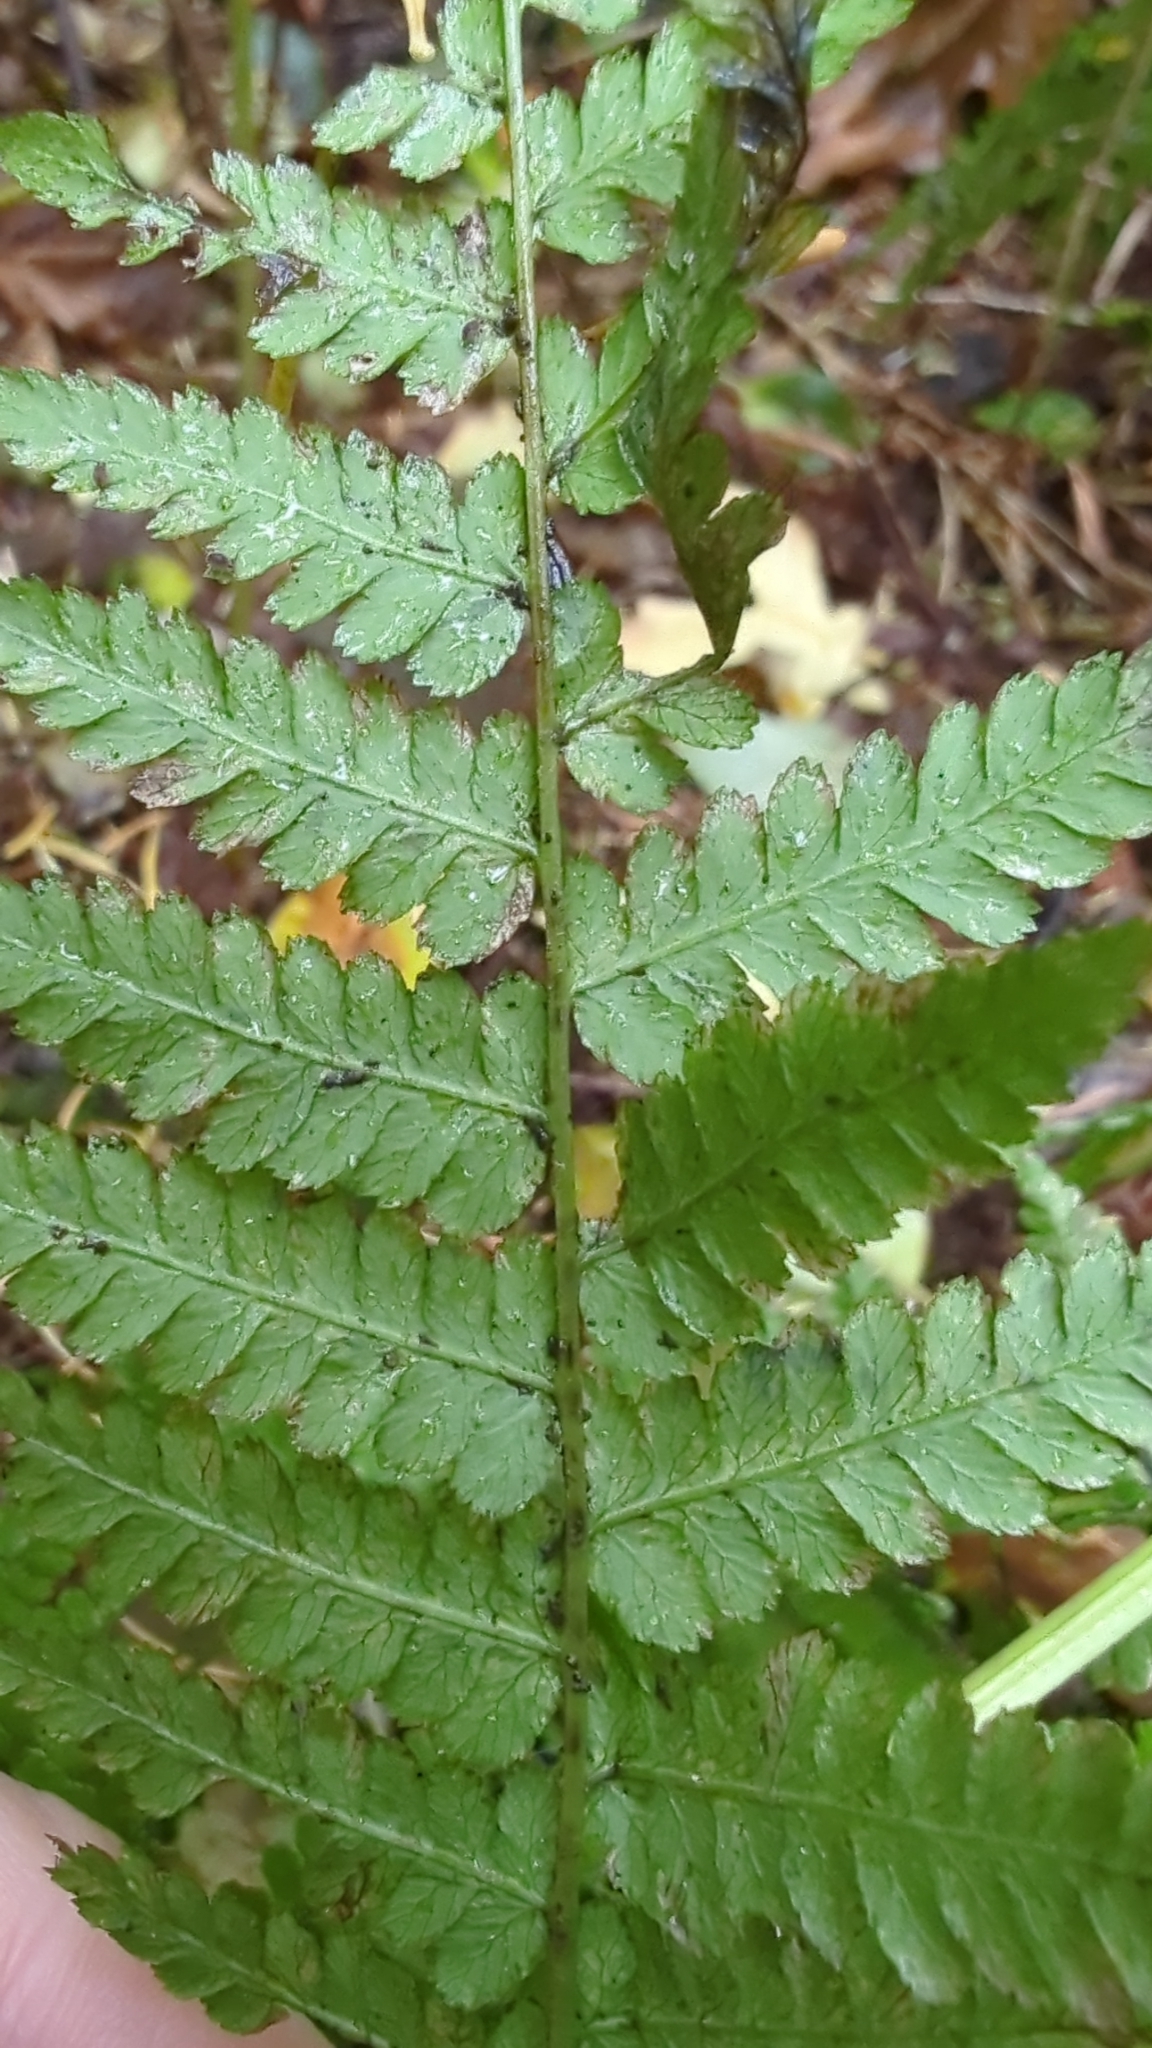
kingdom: Plantae
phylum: Tracheophyta
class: Polypodiopsida
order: Polypodiales
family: Athyriaceae
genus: Athyrium
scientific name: Athyrium filix-femina
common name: Lady fern
